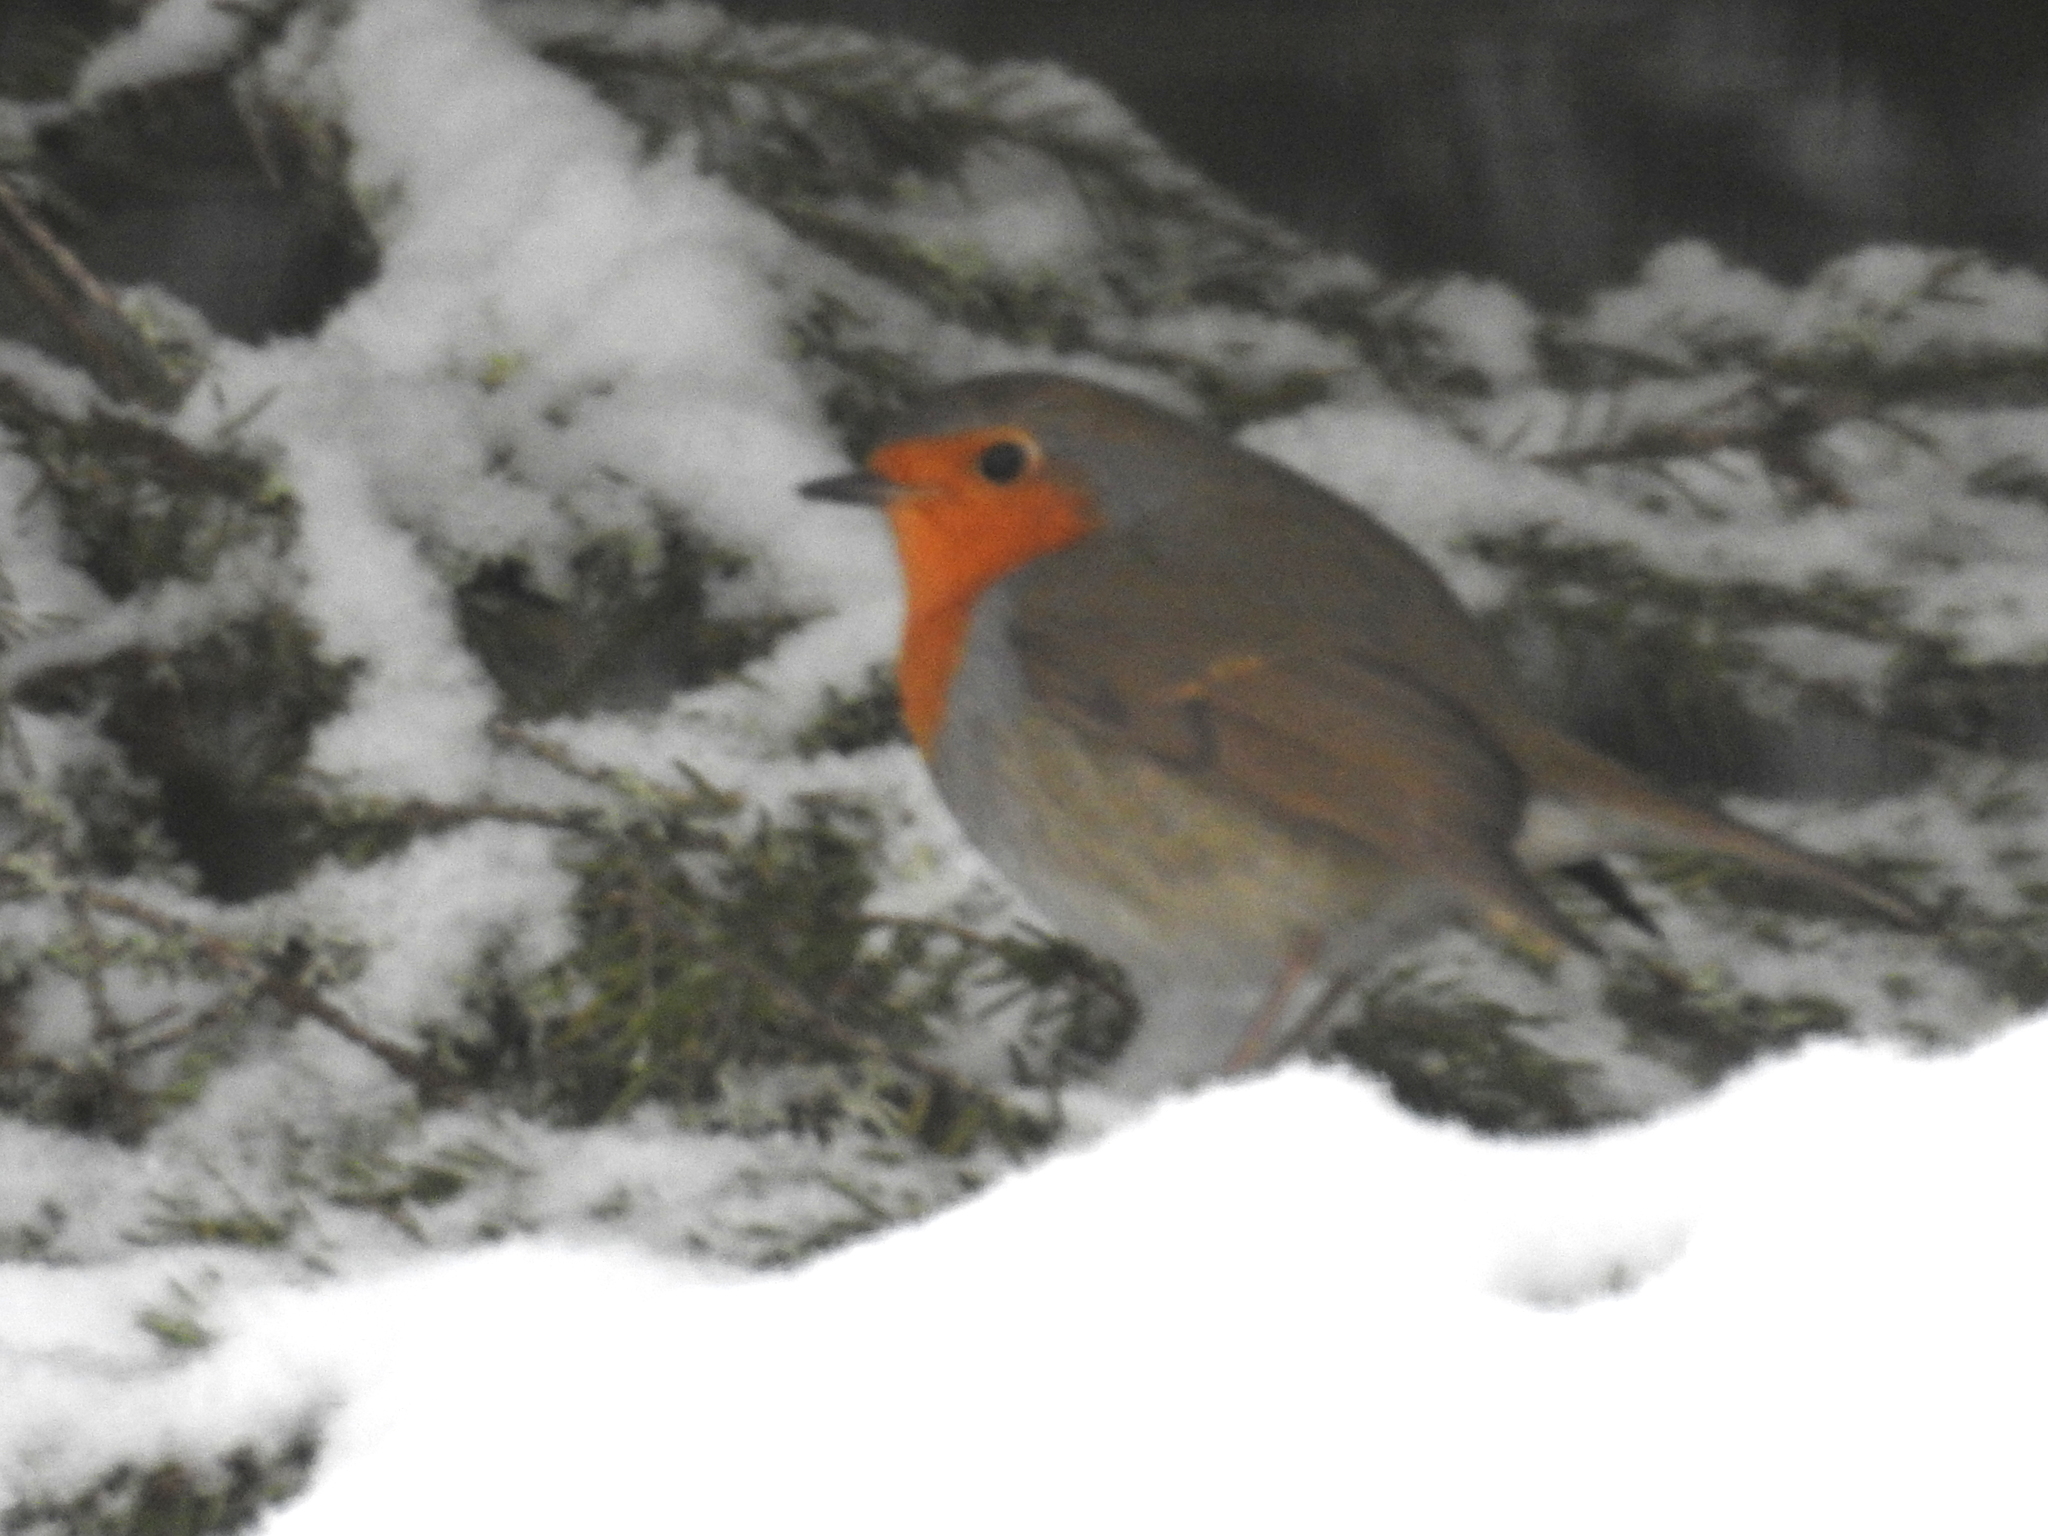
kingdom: Animalia
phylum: Chordata
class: Aves
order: Passeriformes
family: Muscicapidae
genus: Erithacus
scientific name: Erithacus rubecula
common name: European robin
